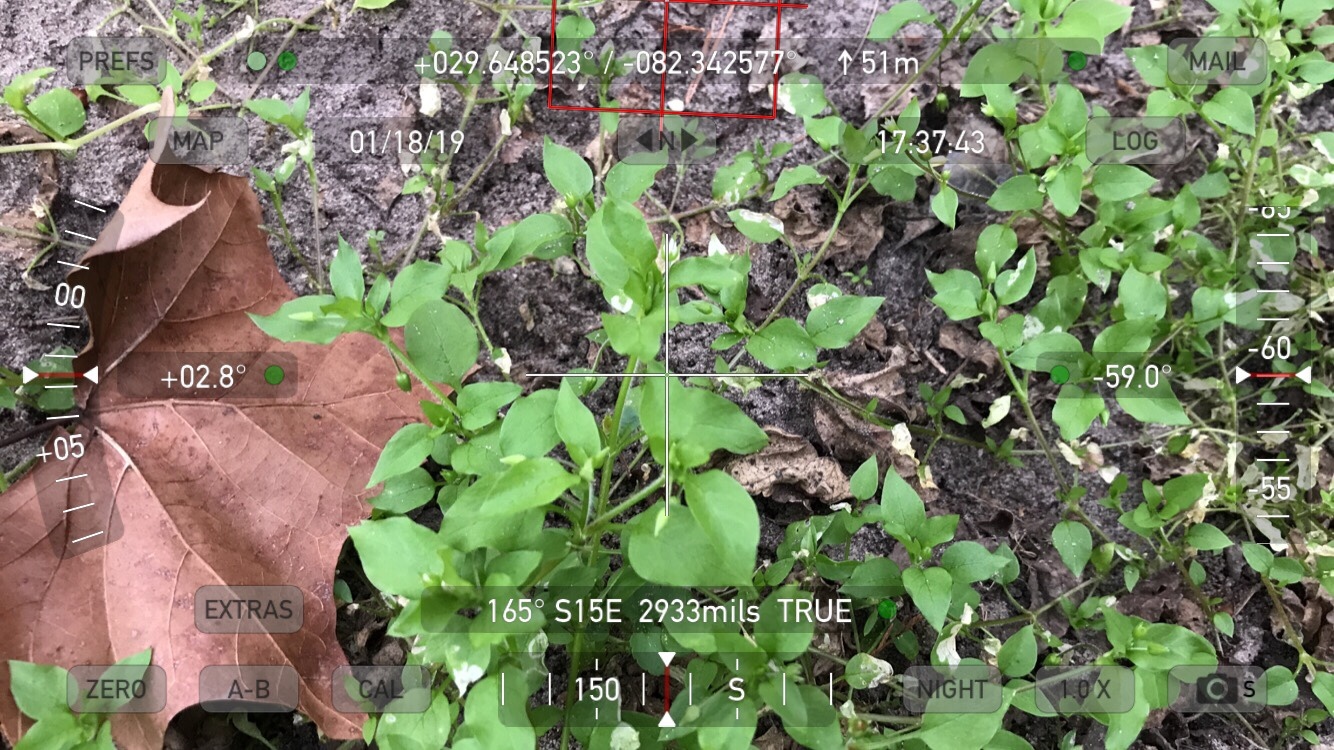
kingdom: Plantae
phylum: Tracheophyta
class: Magnoliopsida
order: Caryophyllales
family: Caryophyllaceae
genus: Stellaria
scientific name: Stellaria media
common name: Common chickweed
